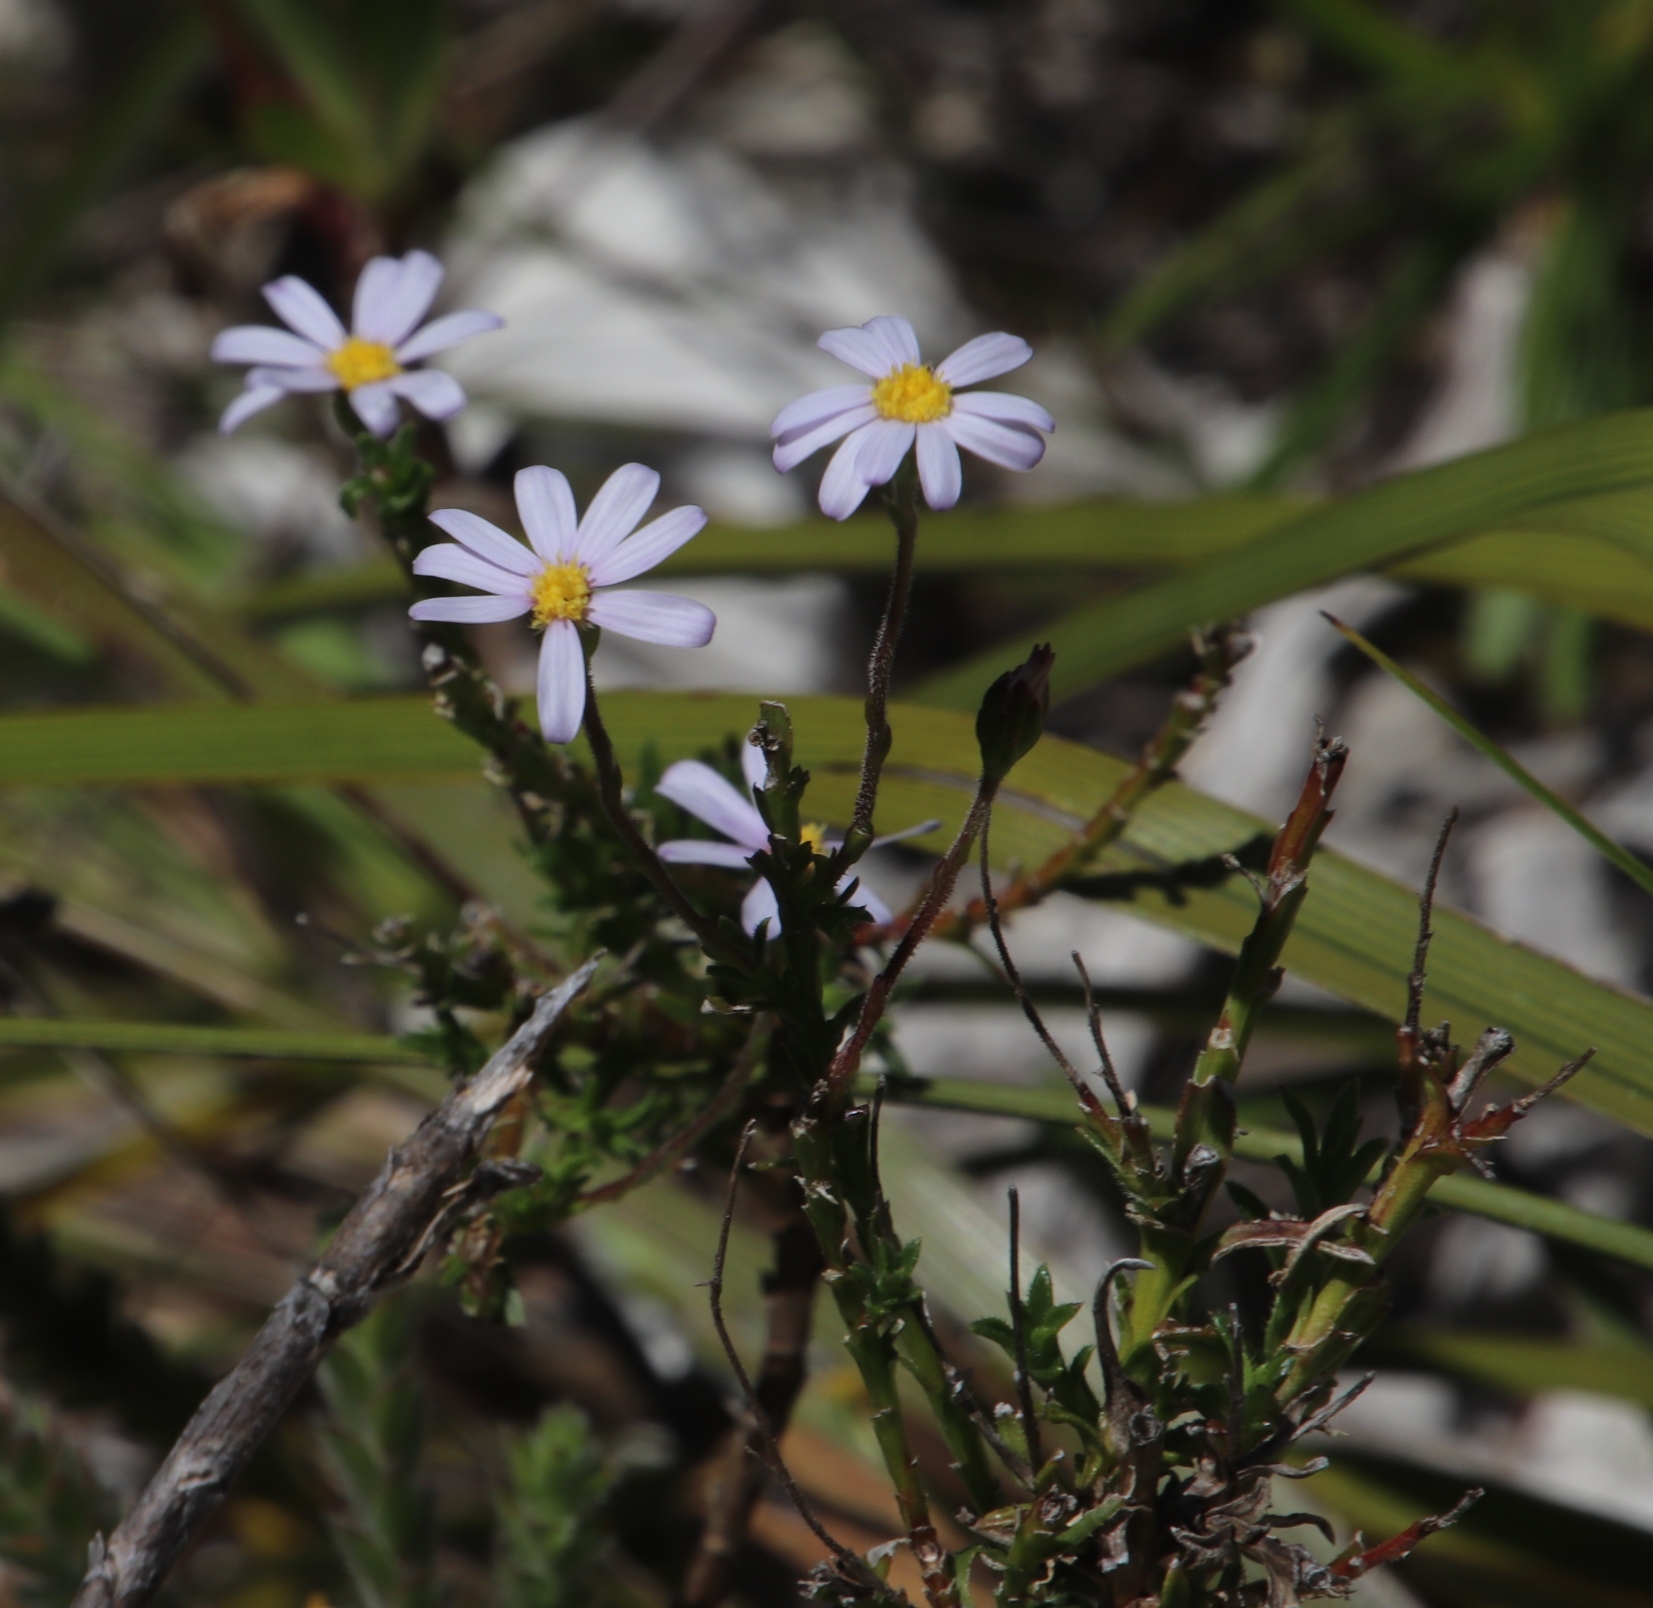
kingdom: Plantae
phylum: Tracheophyta
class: Magnoliopsida
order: Asterales
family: Asteraceae
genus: Zyrphelis
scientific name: Zyrphelis corymbosa
